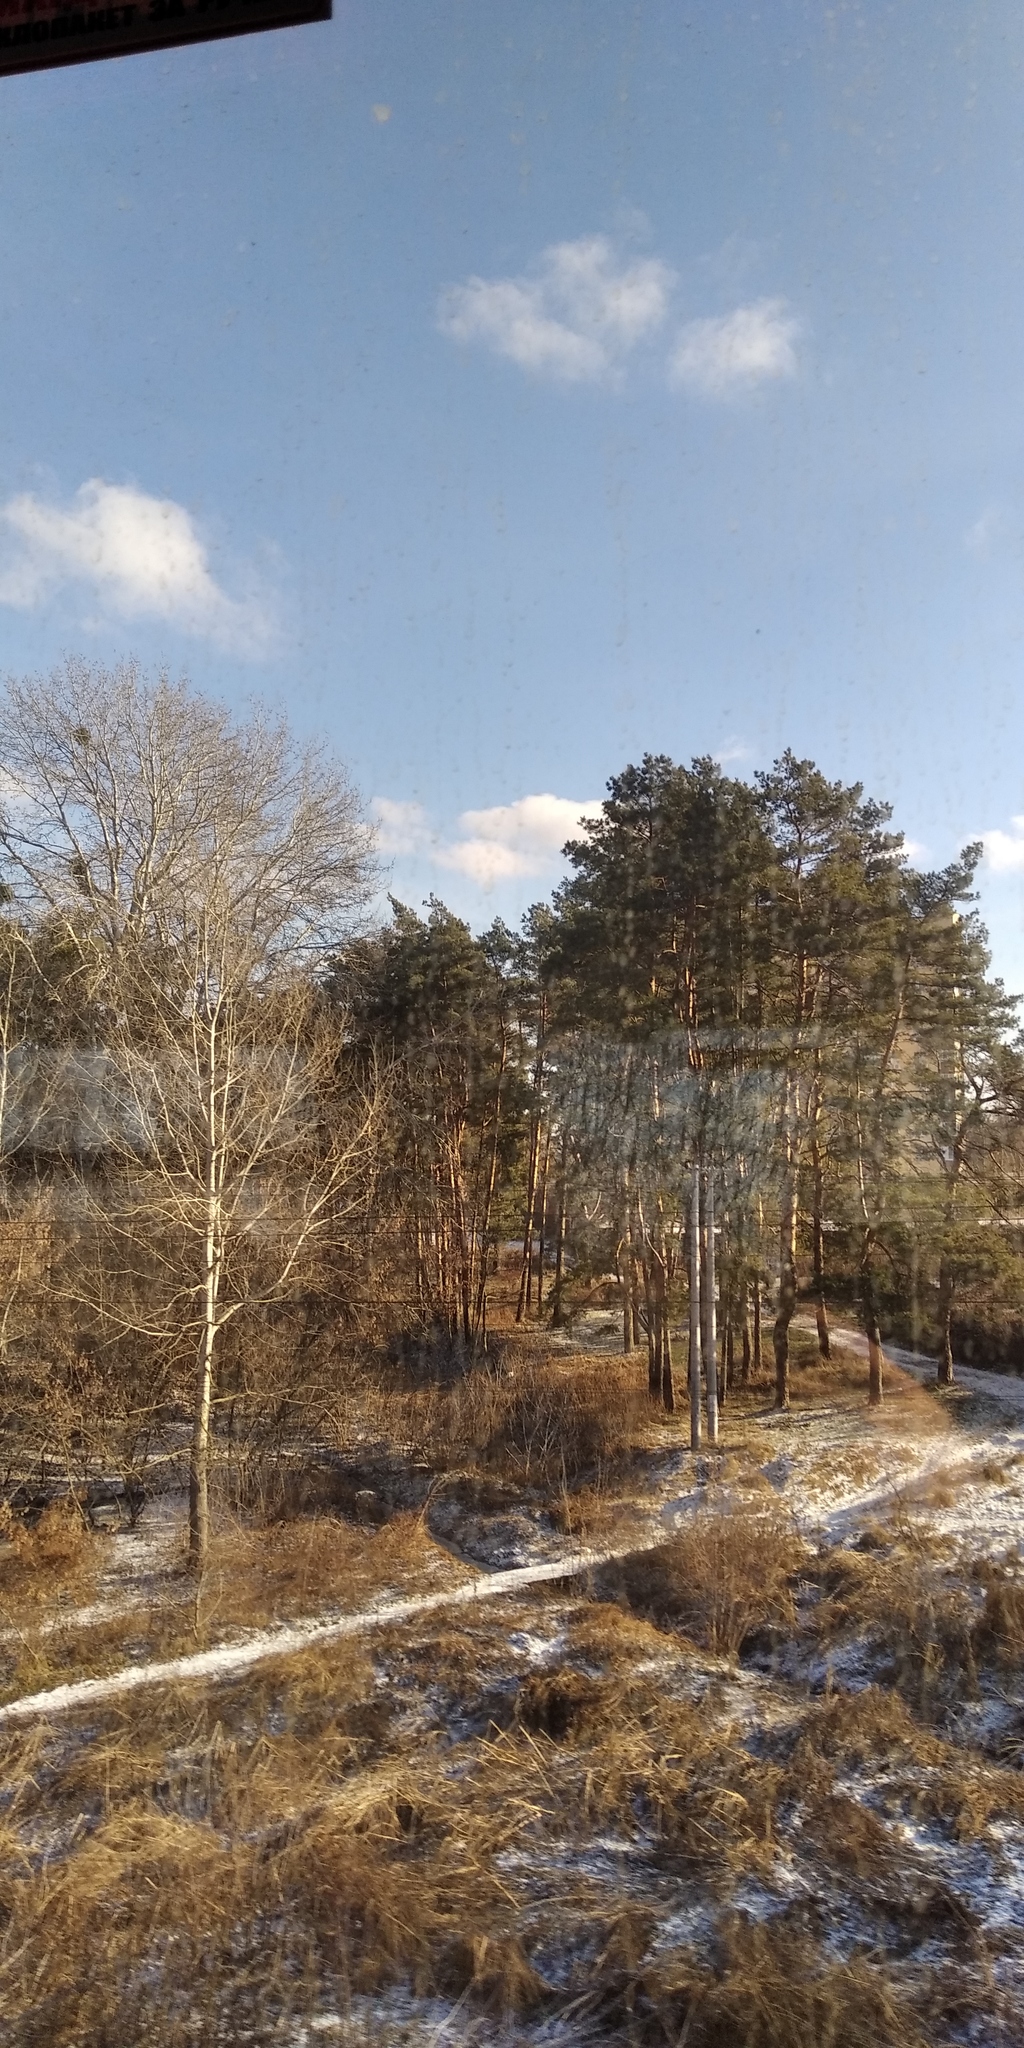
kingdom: Plantae
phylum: Tracheophyta
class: Magnoliopsida
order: Santalales
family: Viscaceae
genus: Viscum
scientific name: Viscum album
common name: Mistletoe
